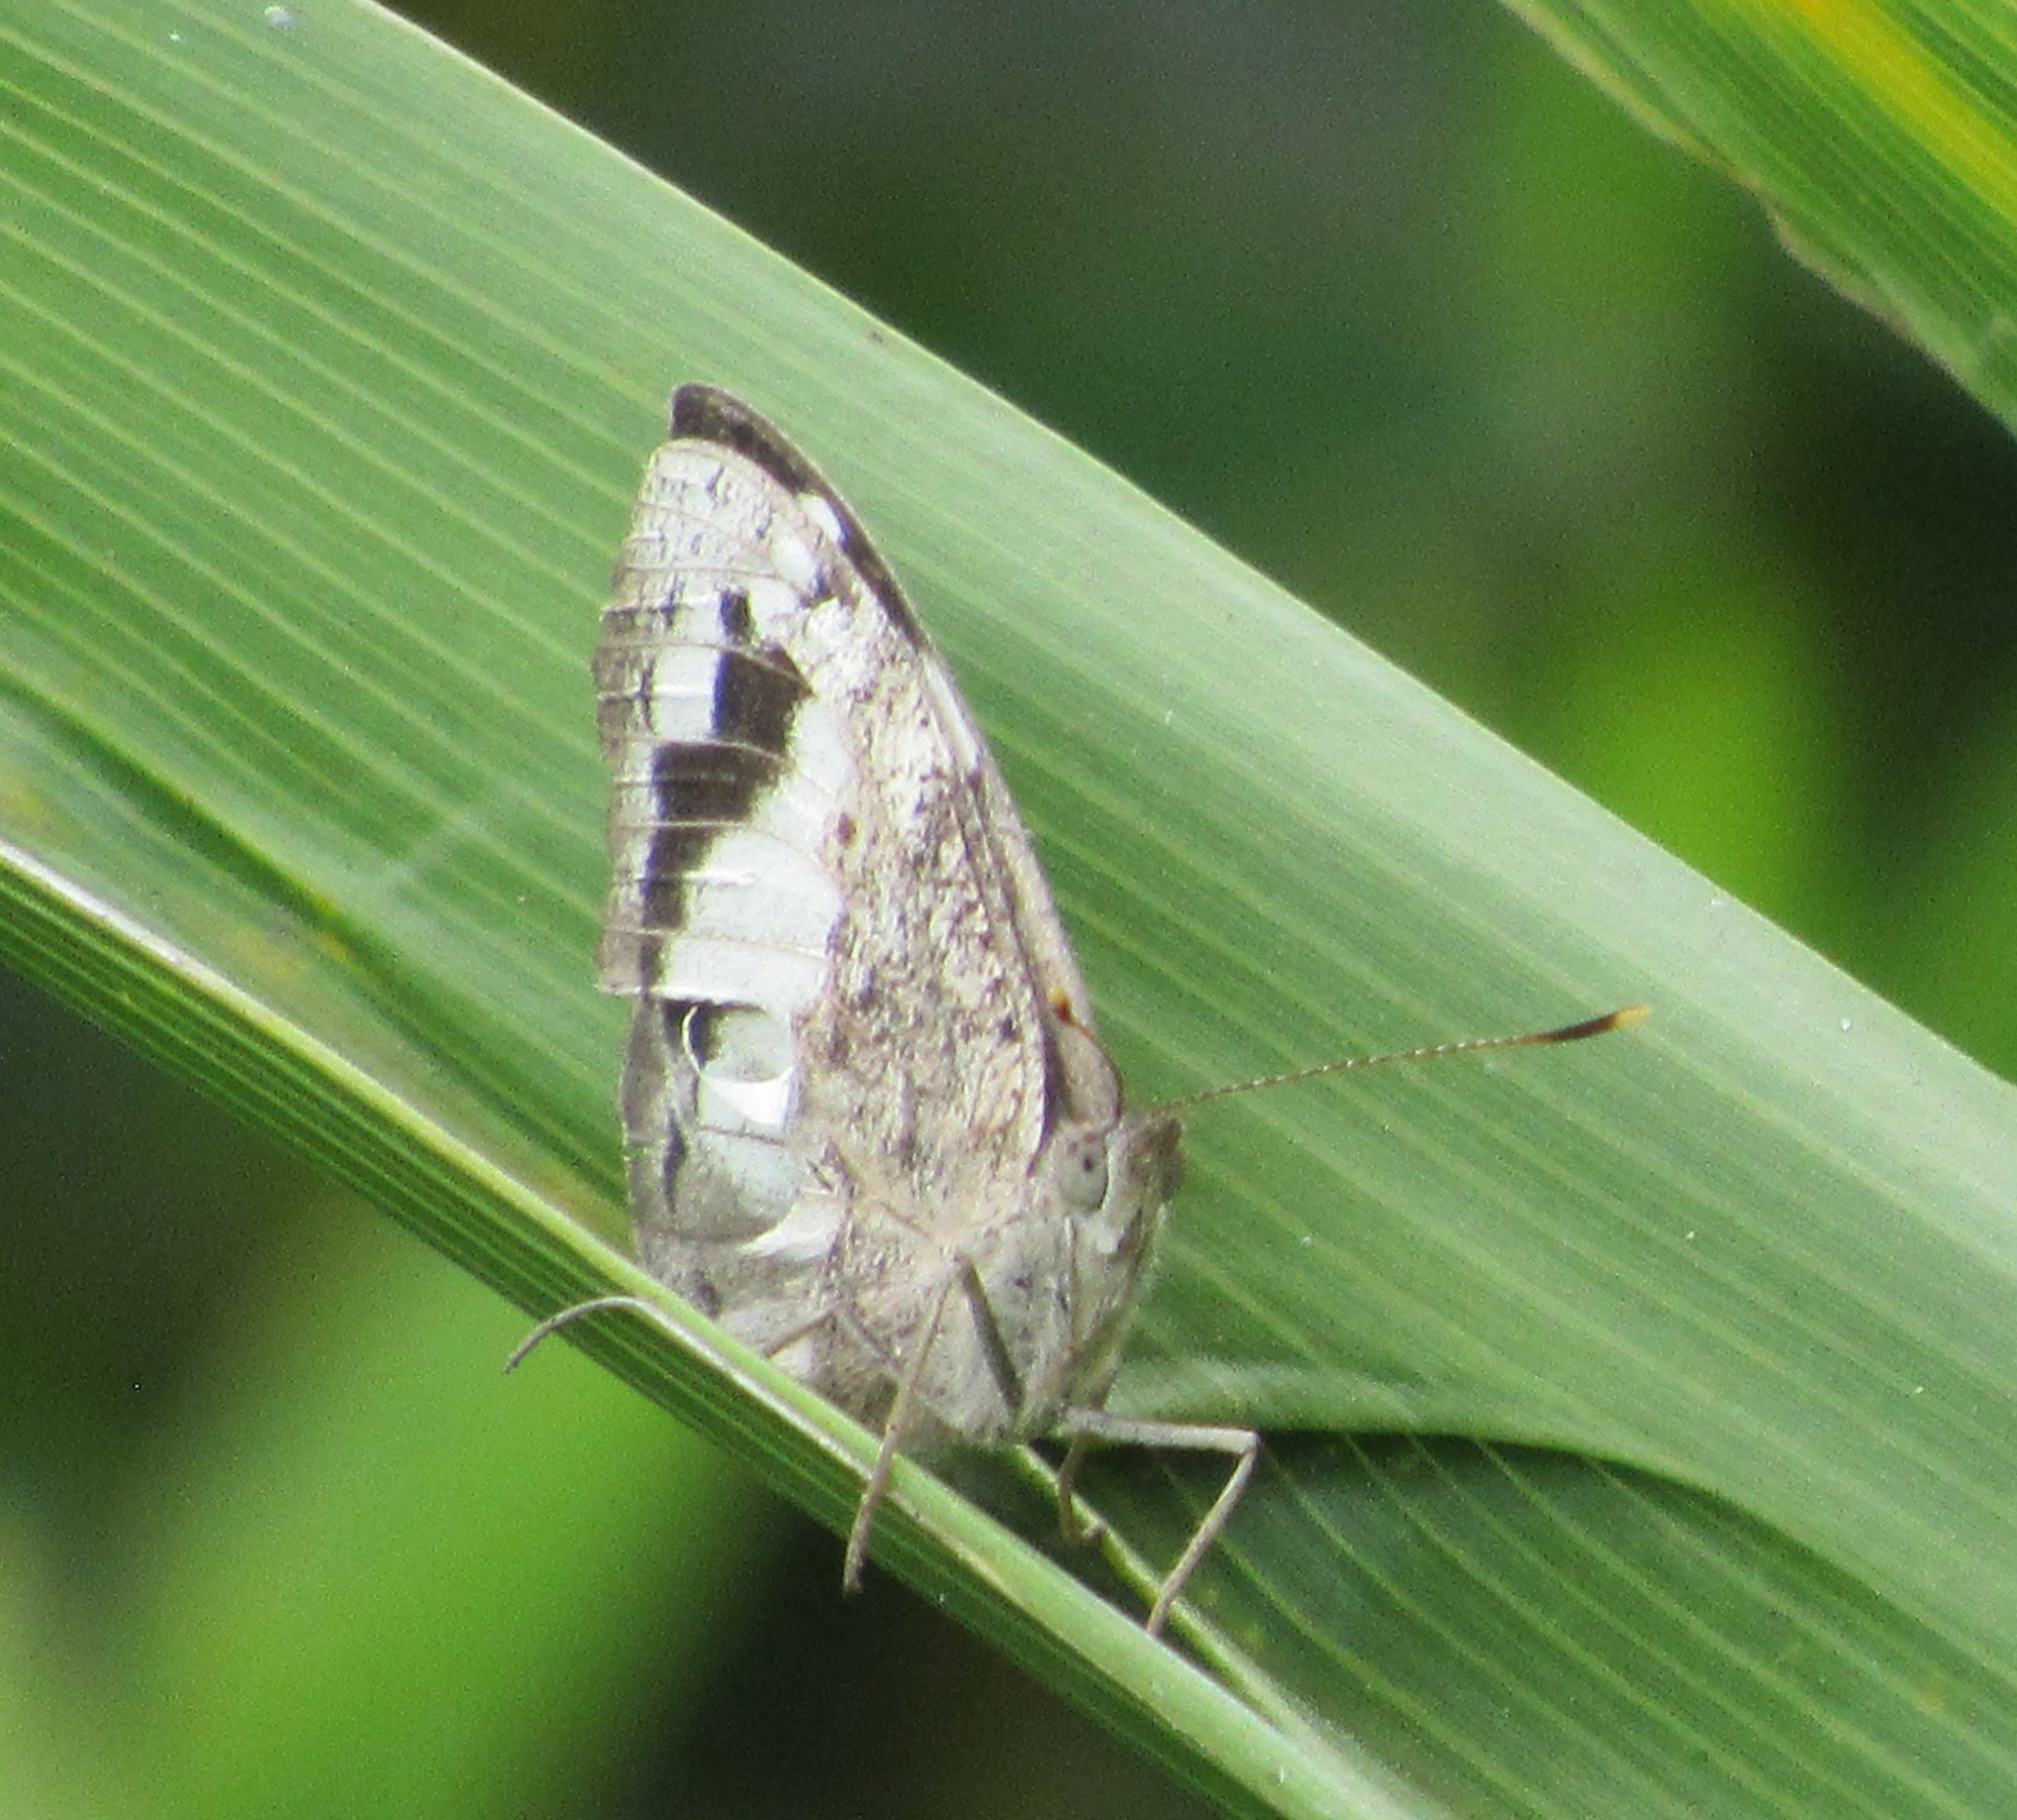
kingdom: Animalia
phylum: Arthropoda
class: Insecta
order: Lepidoptera
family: Nymphalidae
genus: Eunica
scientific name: Eunica eburnea
